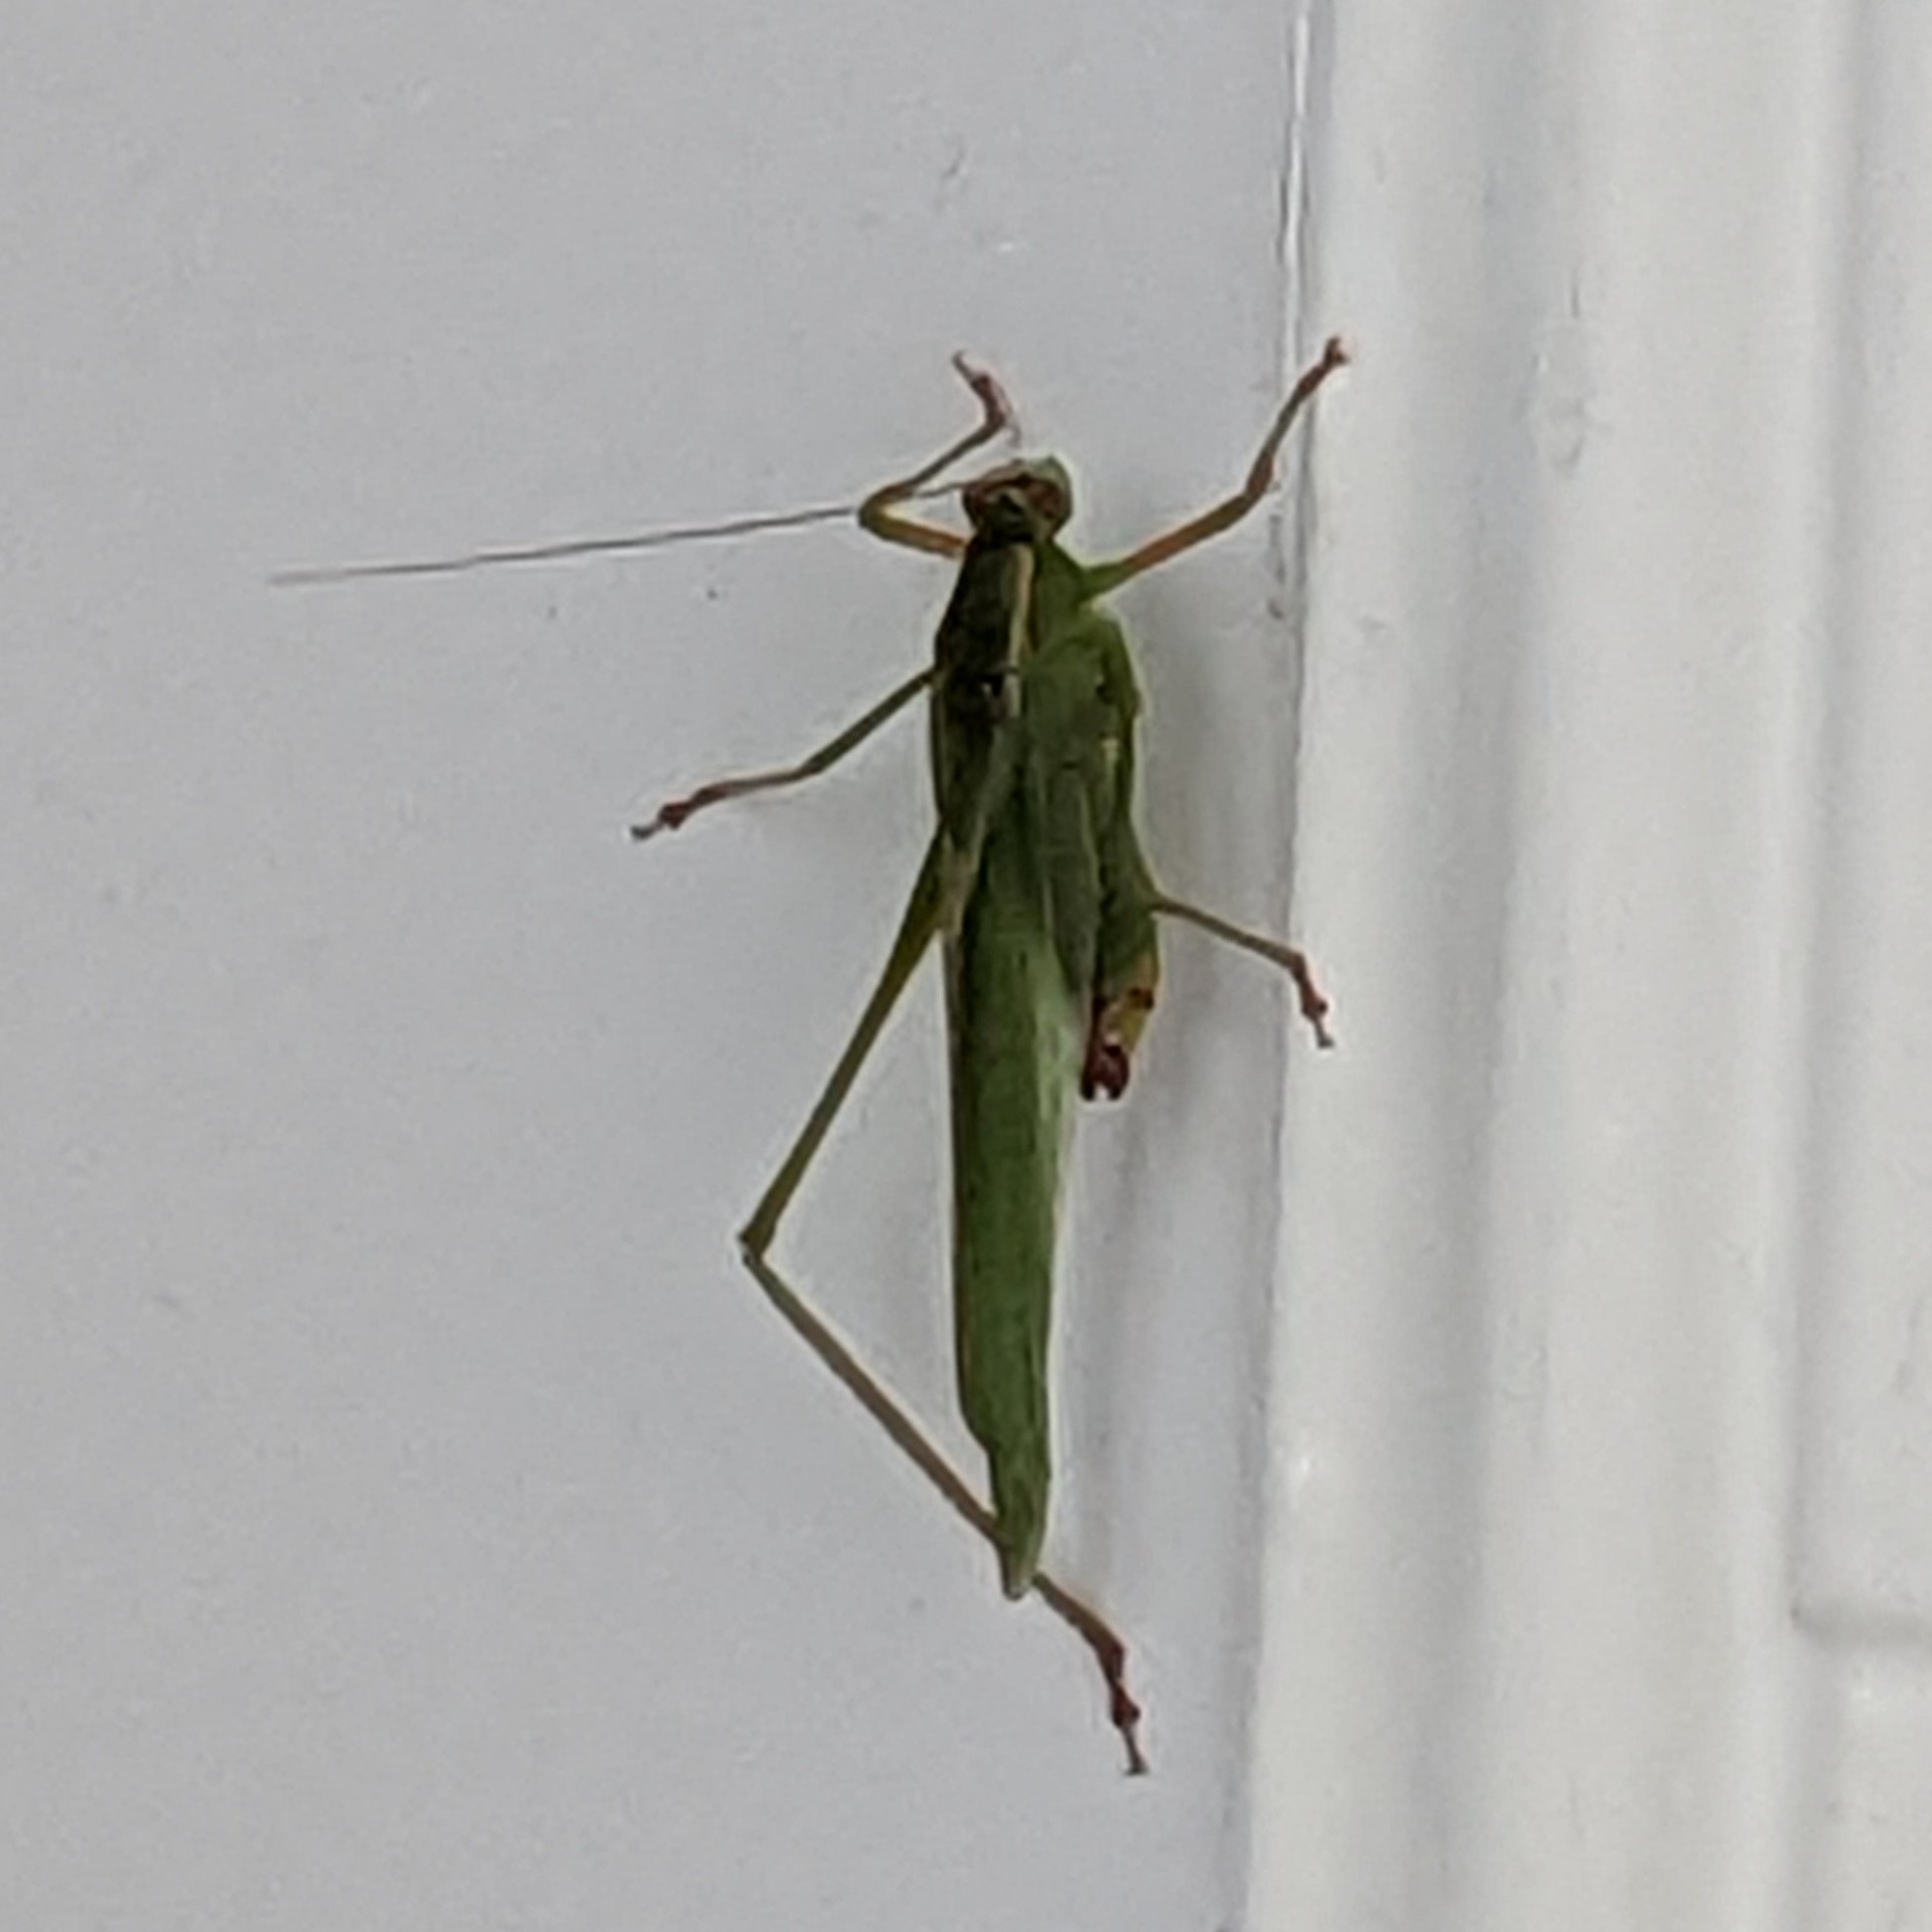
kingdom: Animalia
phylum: Arthropoda
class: Insecta
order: Orthoptera
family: Tettigoniidae
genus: Scudderia
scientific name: Scudderia furcata
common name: Fork-tailed bush katydid
